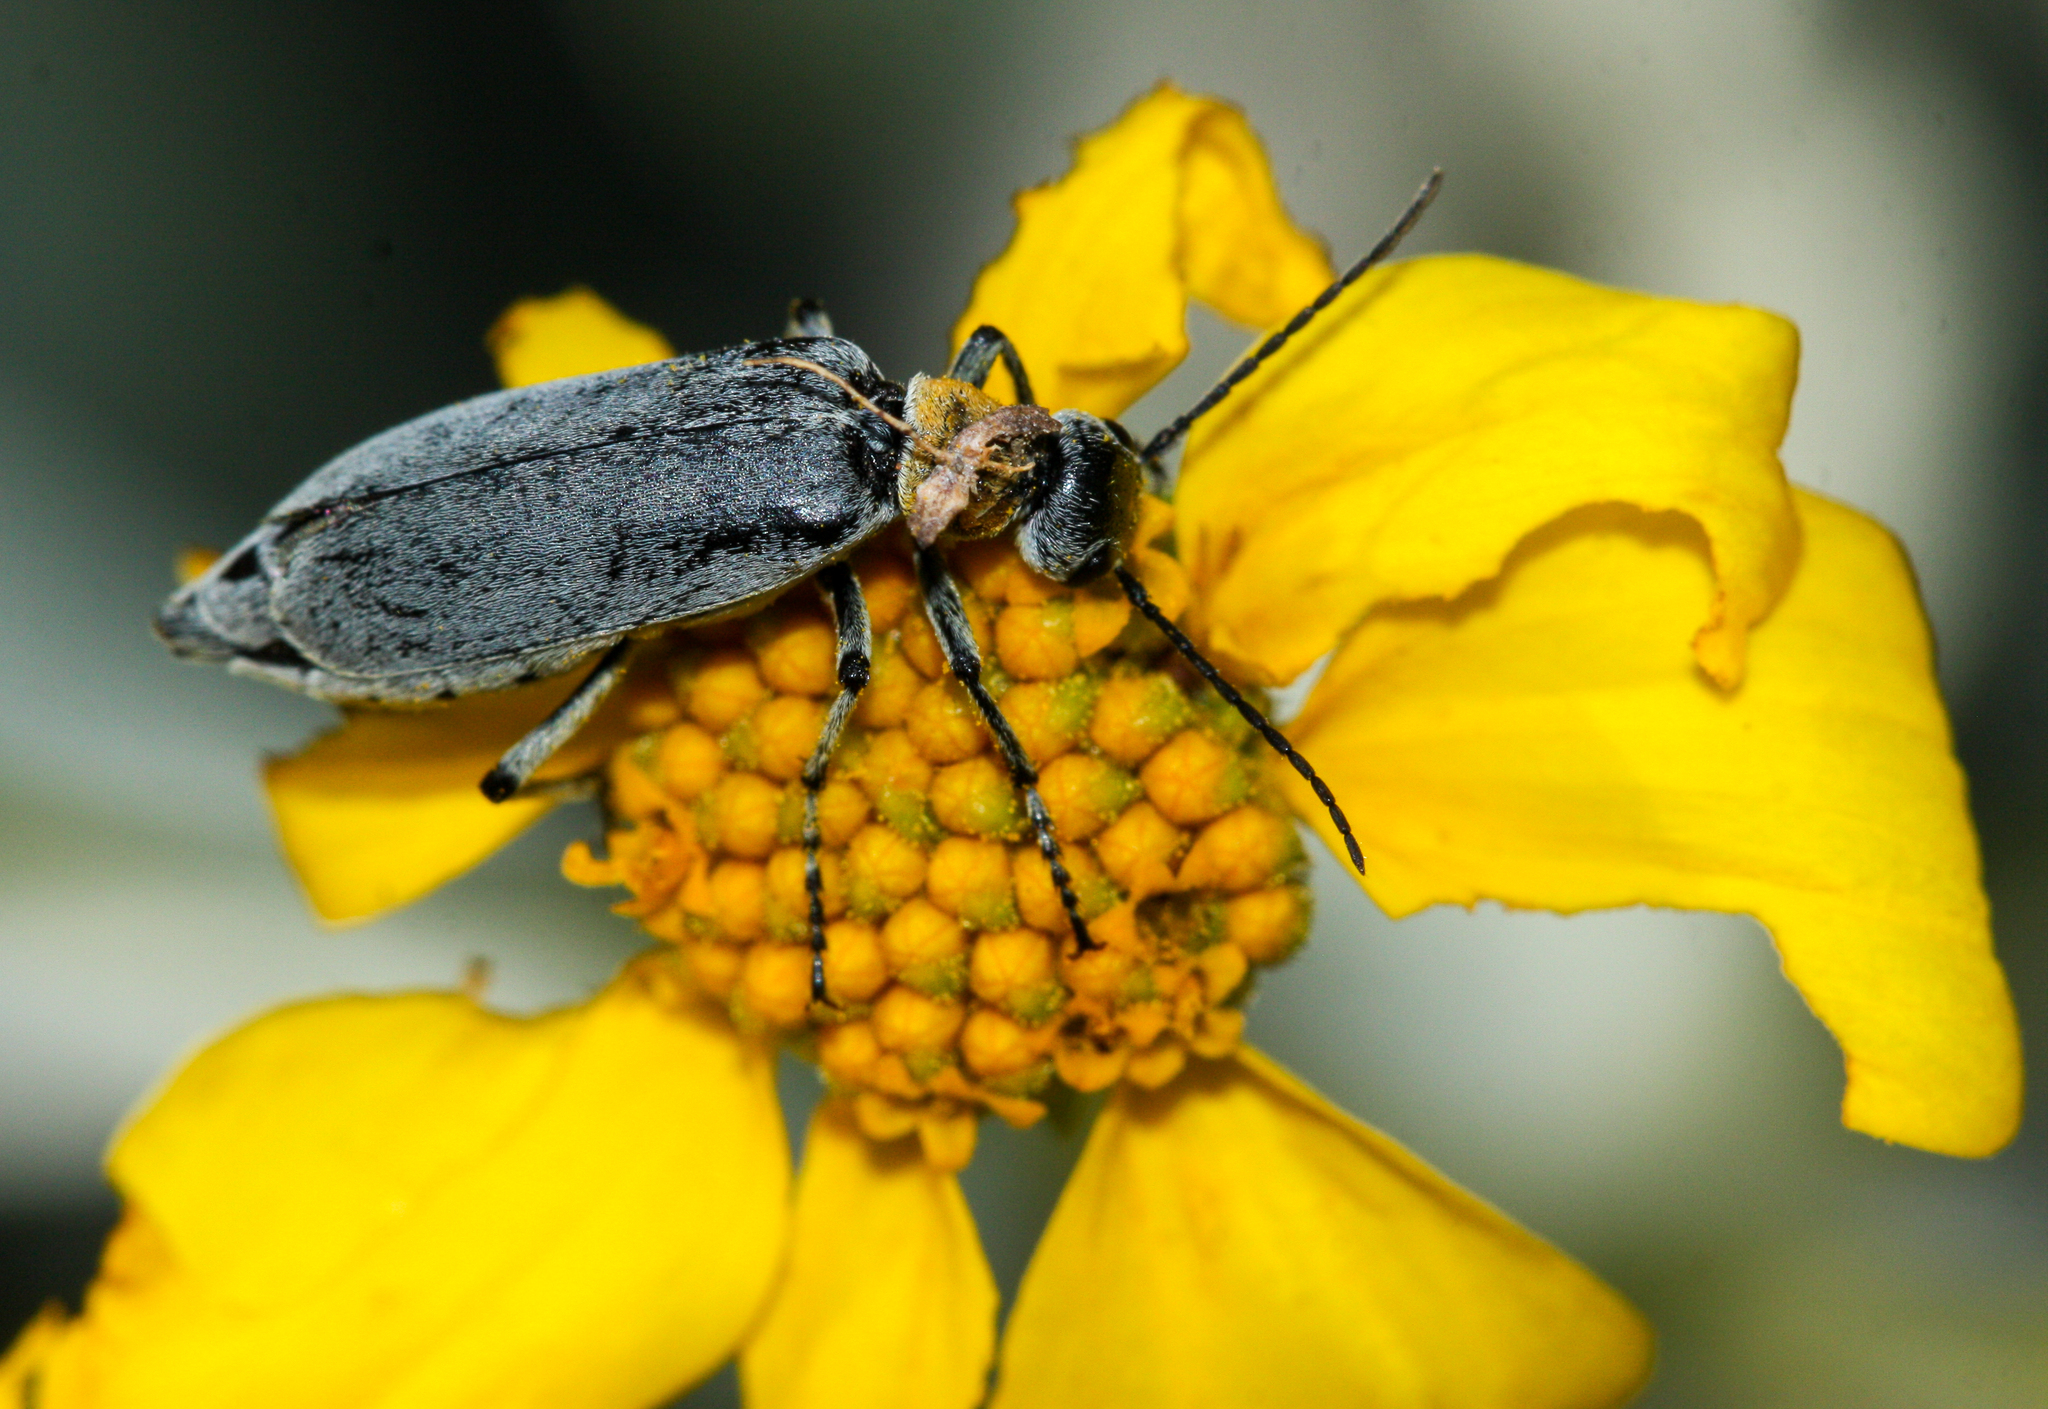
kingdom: Animalia
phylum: Arthropoda
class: Insecta
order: Coleoptera
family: Meloidae
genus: Epicauta
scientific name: Epicauta wheeleri
